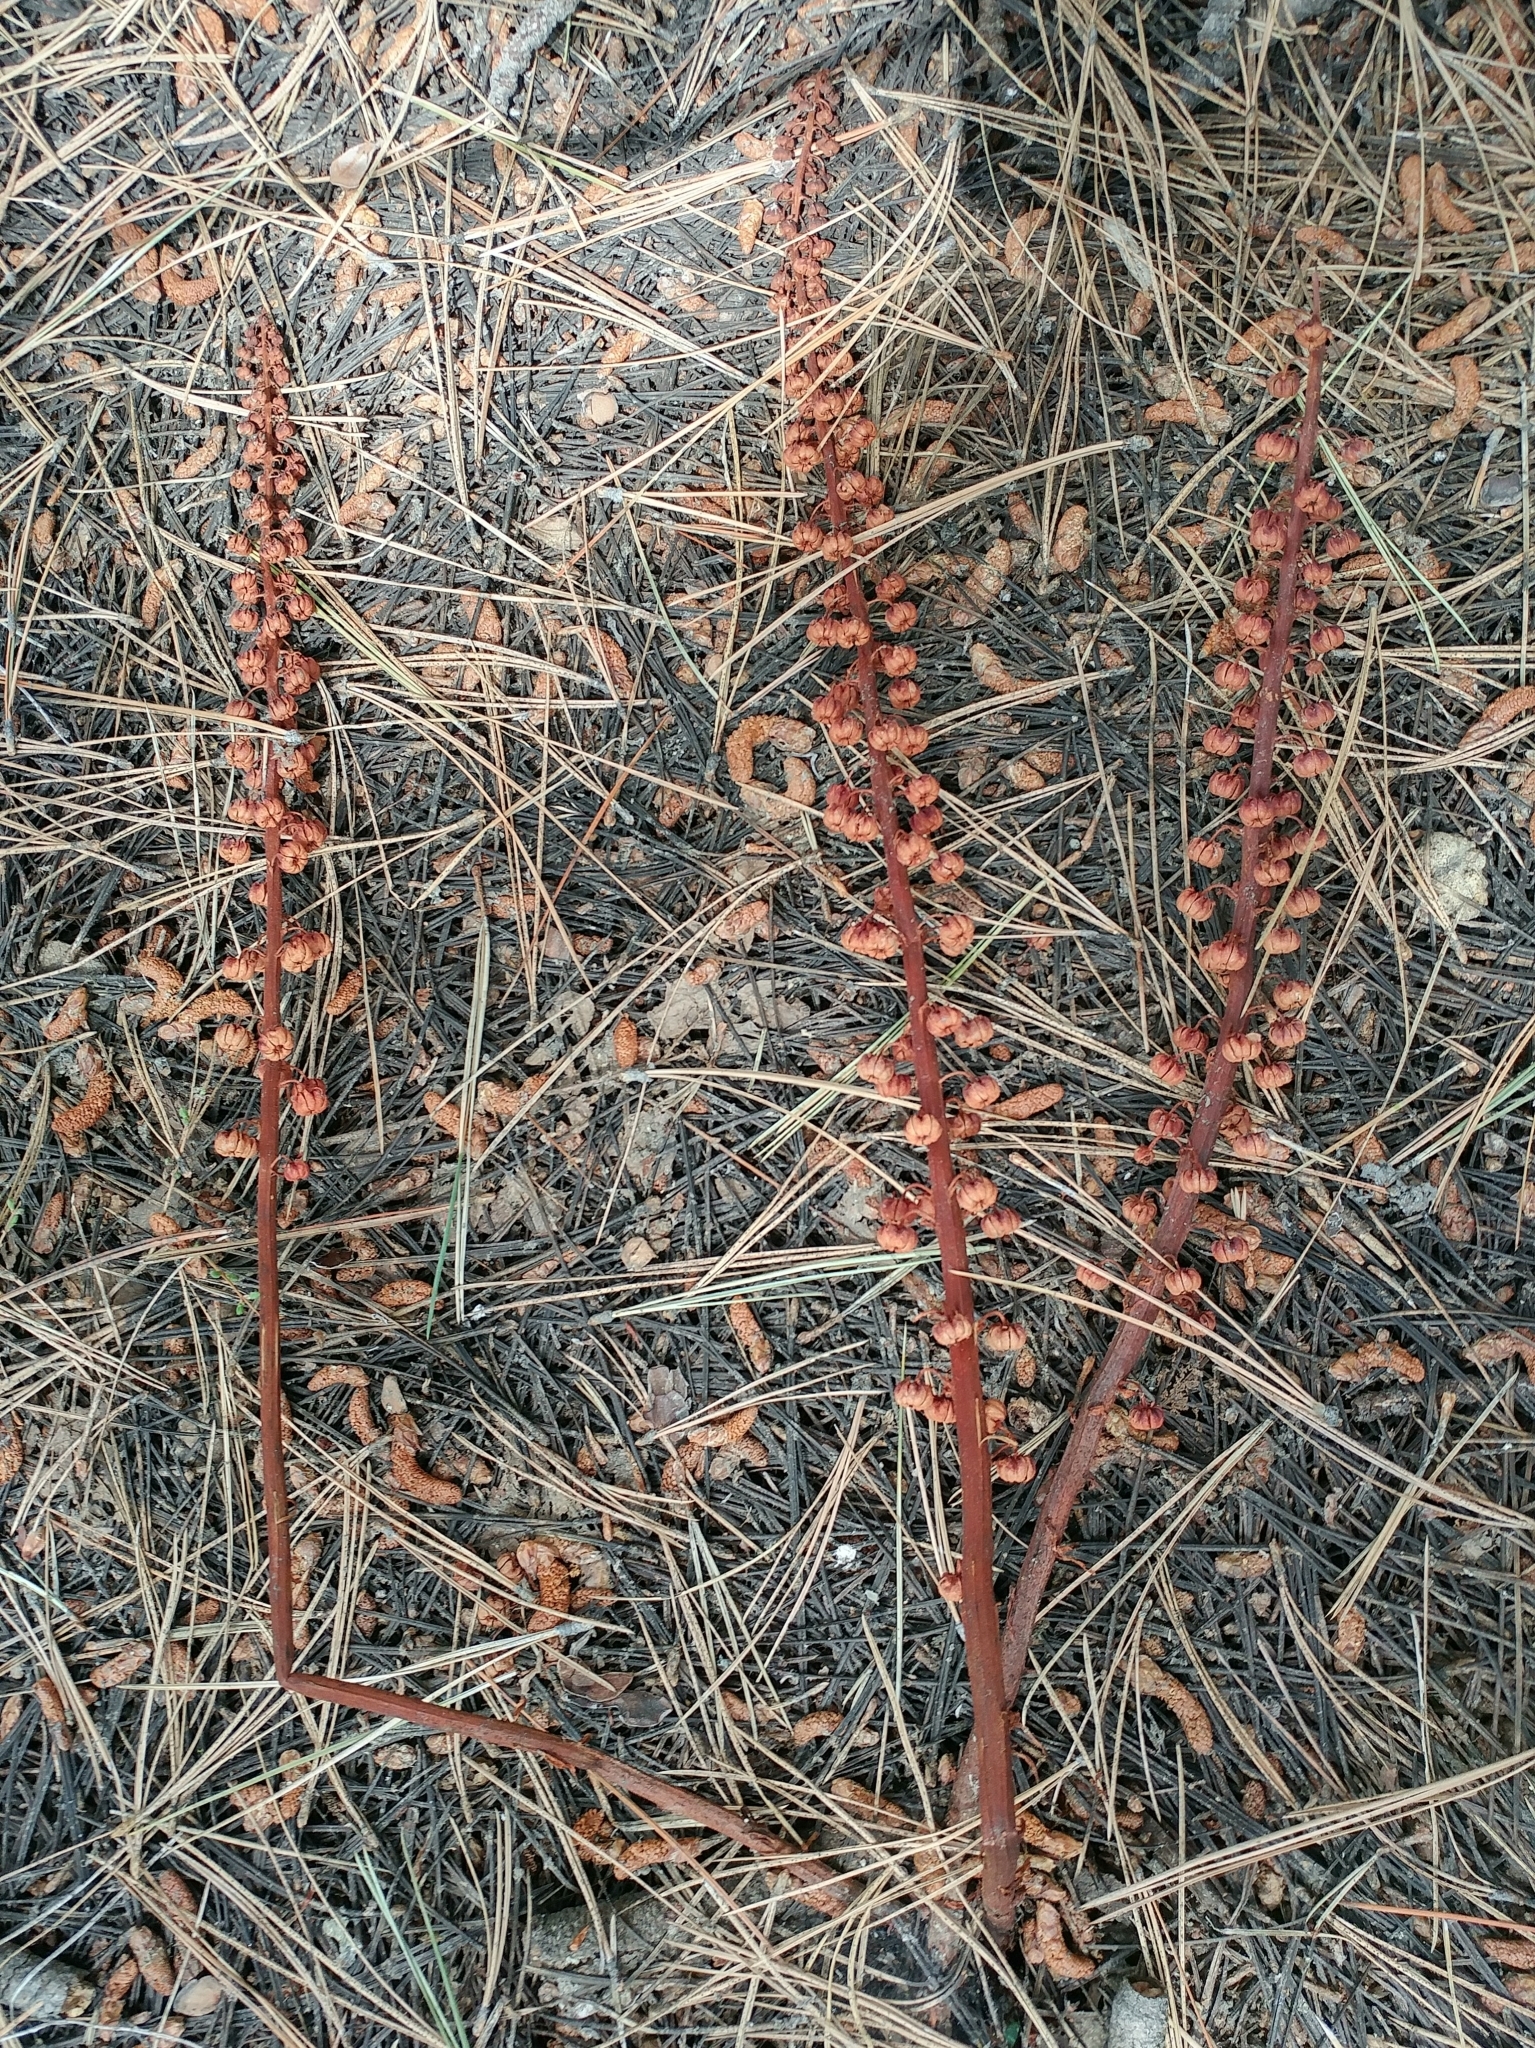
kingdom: Plantae
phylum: Tracheophyta
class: Magnoliopsida
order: Ericales
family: Ericaceae
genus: Pterospora
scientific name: Pterospora andromedea
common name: Giant bird's-nest
